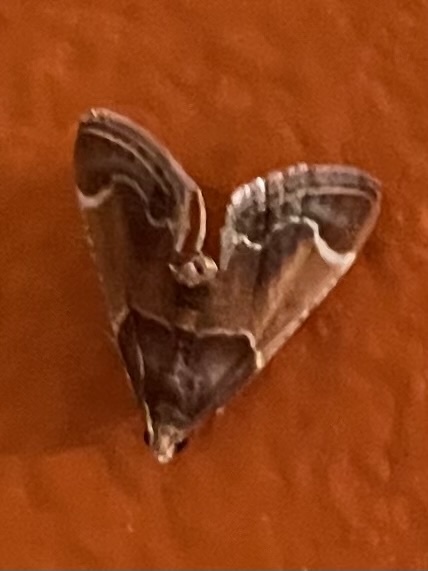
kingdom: Animalia
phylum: Arthropoda
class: Insecta
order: Lepidoptera
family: Pyralidae
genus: Pyralis
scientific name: Pyralis farinalis
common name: Meal moth
